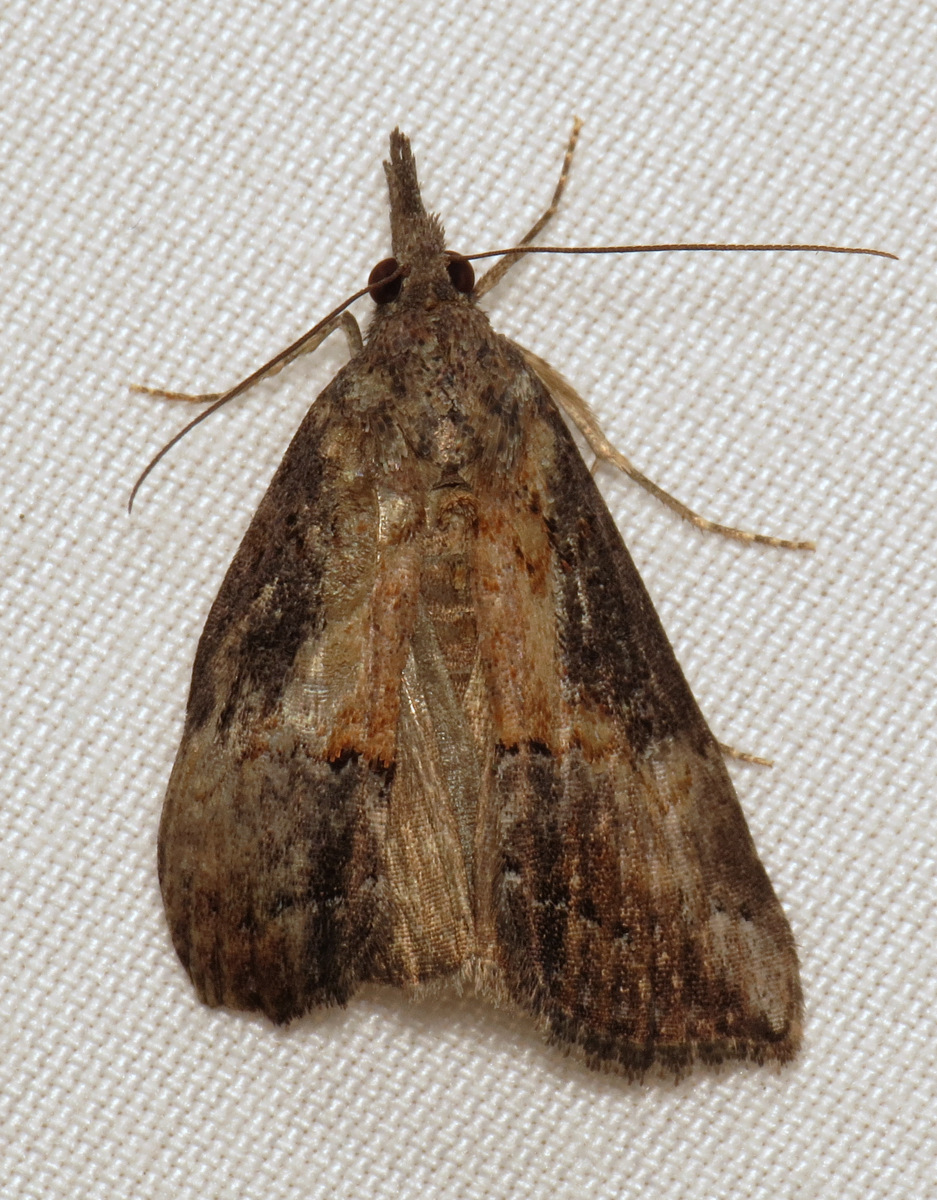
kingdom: Animalia
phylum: Arthropoda
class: Insecta
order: Lepidoptera
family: Erebidae
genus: Hypena
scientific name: Hypena scabra
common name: Green cloverworm
